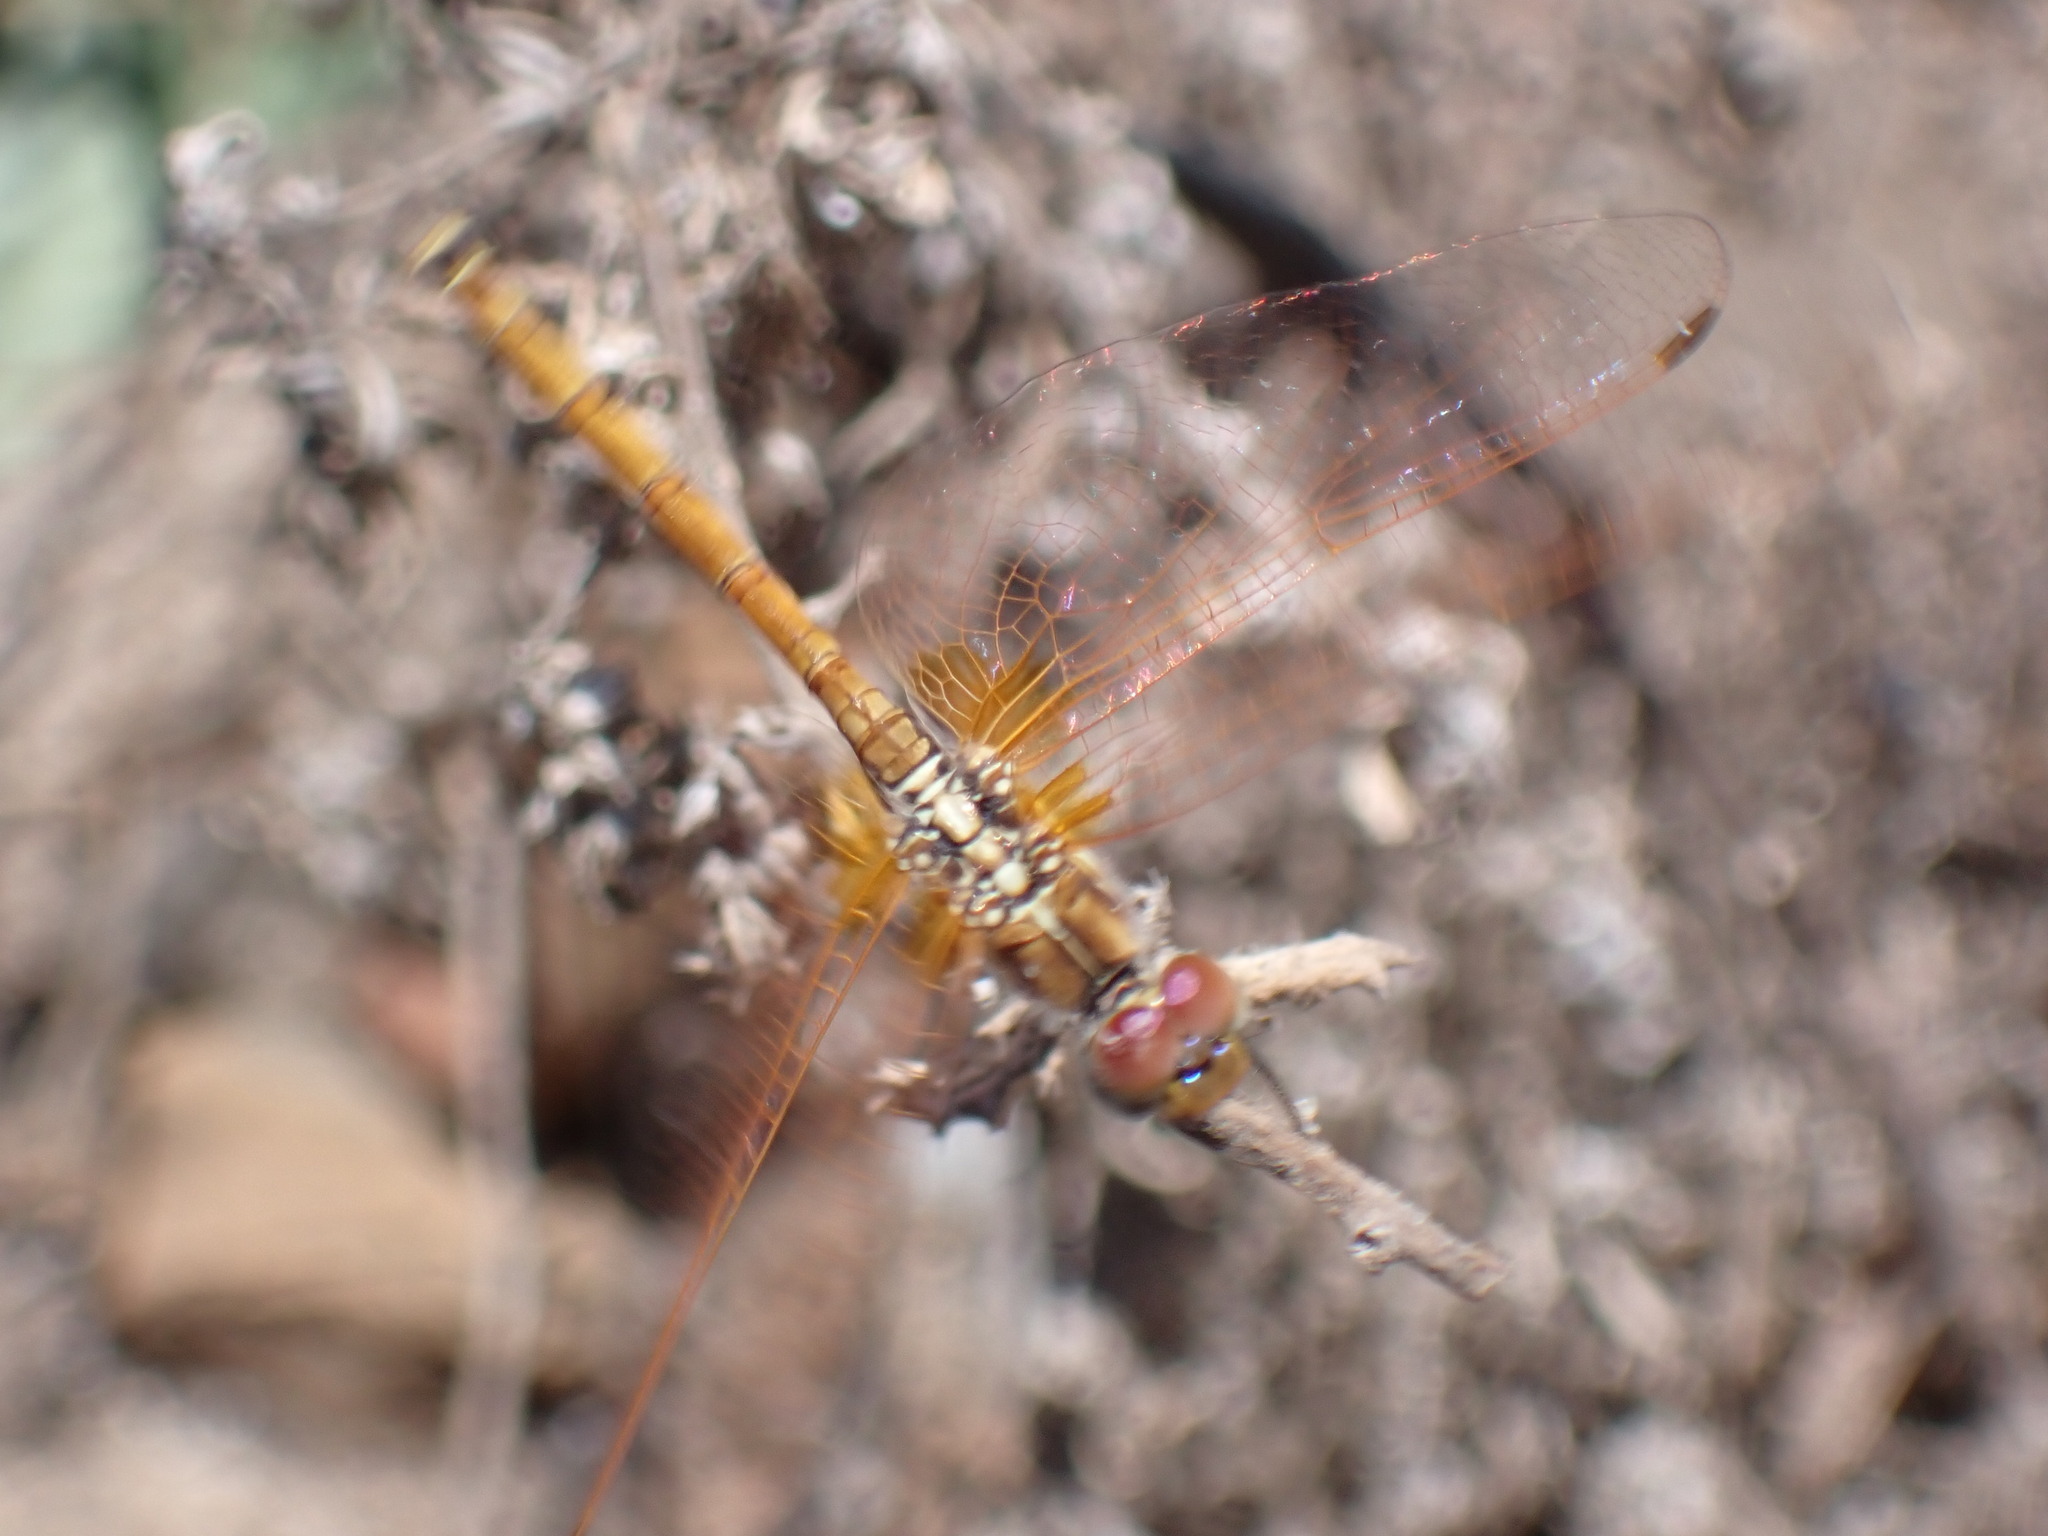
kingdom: Animalia
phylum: Arthropoda
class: Insecta
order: Odonata
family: Libellulidae
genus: Trithemis
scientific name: Trithemis arteriosa
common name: Red-veined dropwing
